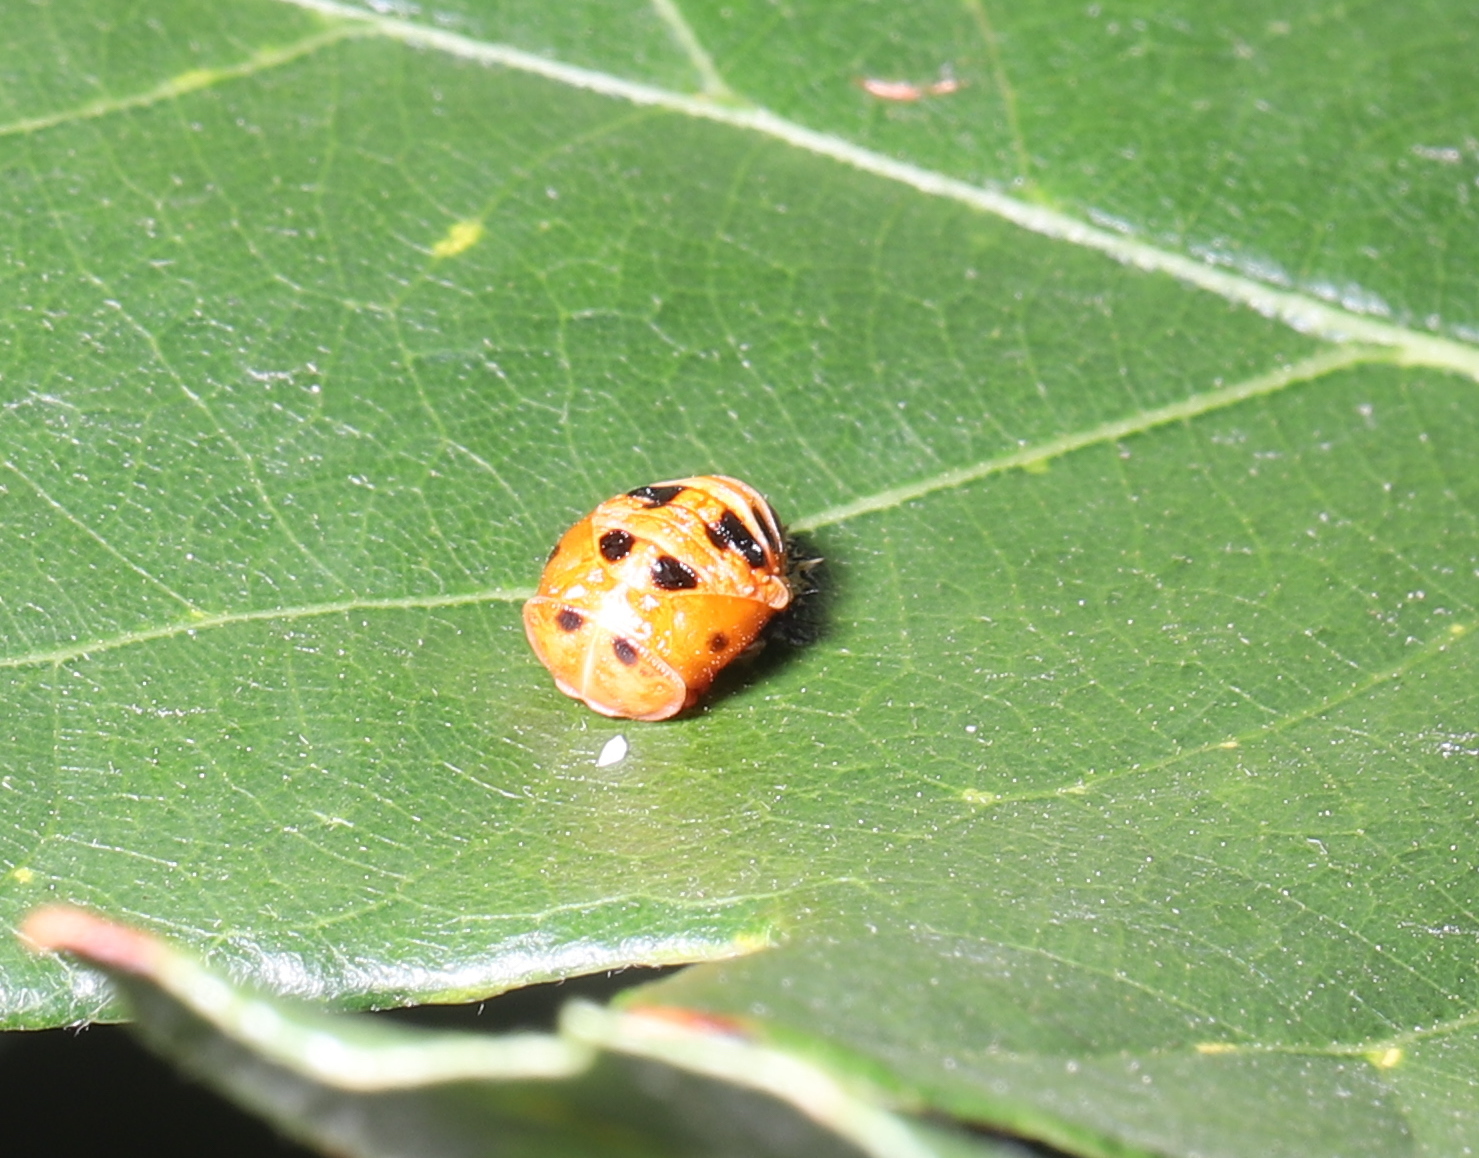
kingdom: Animalia
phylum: Arthropoda
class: Insecta
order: Coleoptera
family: Coccinellidae
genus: Harmonia
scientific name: Harmonia axyridis
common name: Harlequin ladybird
